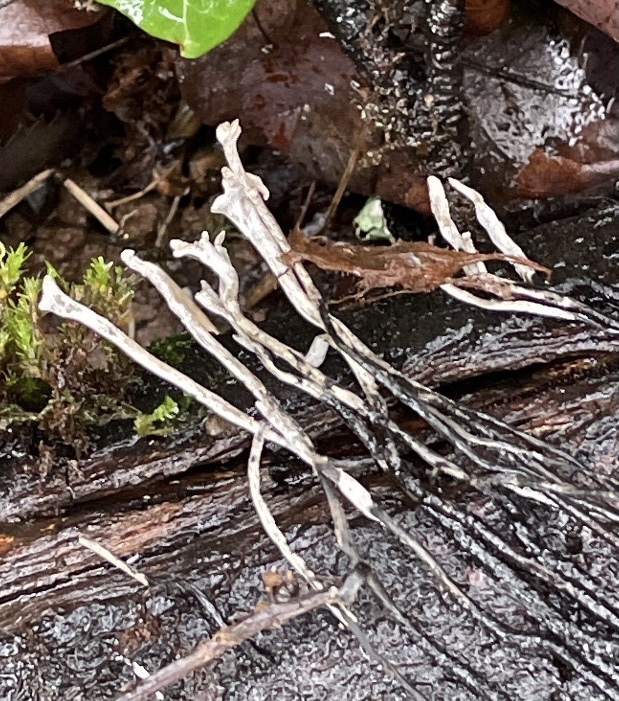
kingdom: Fungi
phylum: Ascomycota
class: Sordariomycetes
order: Xylariales
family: Xylariaceae
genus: Xylaria
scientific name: Xylaria hypoxylon
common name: Candle-snuff fungus
